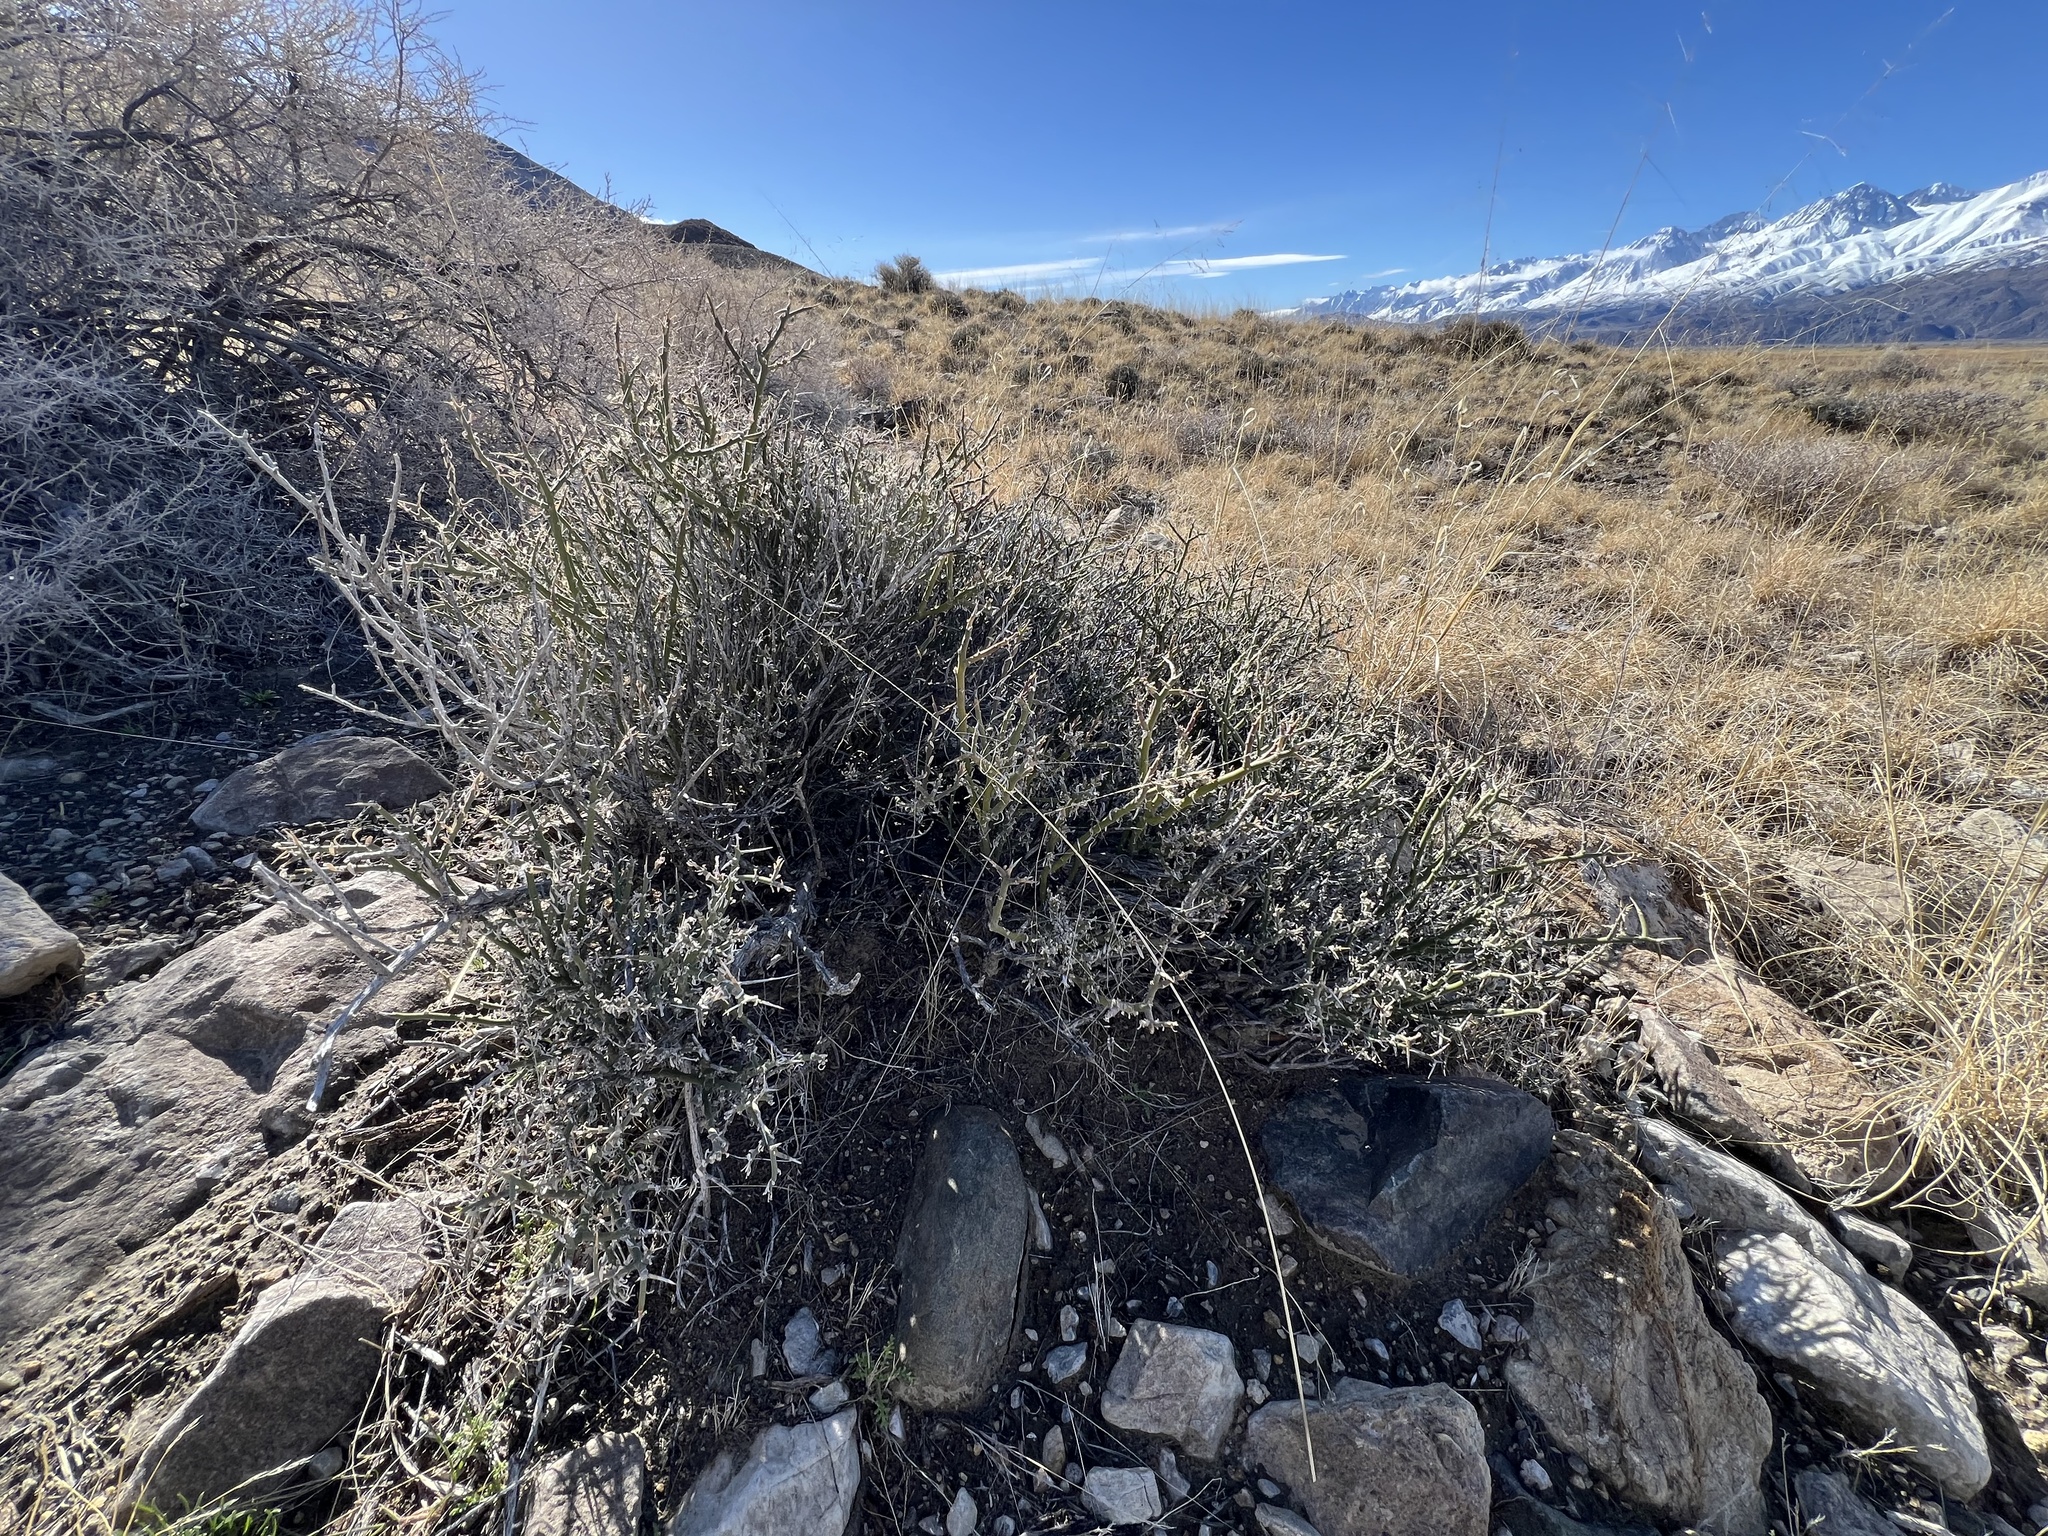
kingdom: Plantae
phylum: Tracheophyta
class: Magnoliopsida
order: Lamiales
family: Oleaceae
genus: Menodora
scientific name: Menodora spinescens
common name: Spiny menodora
